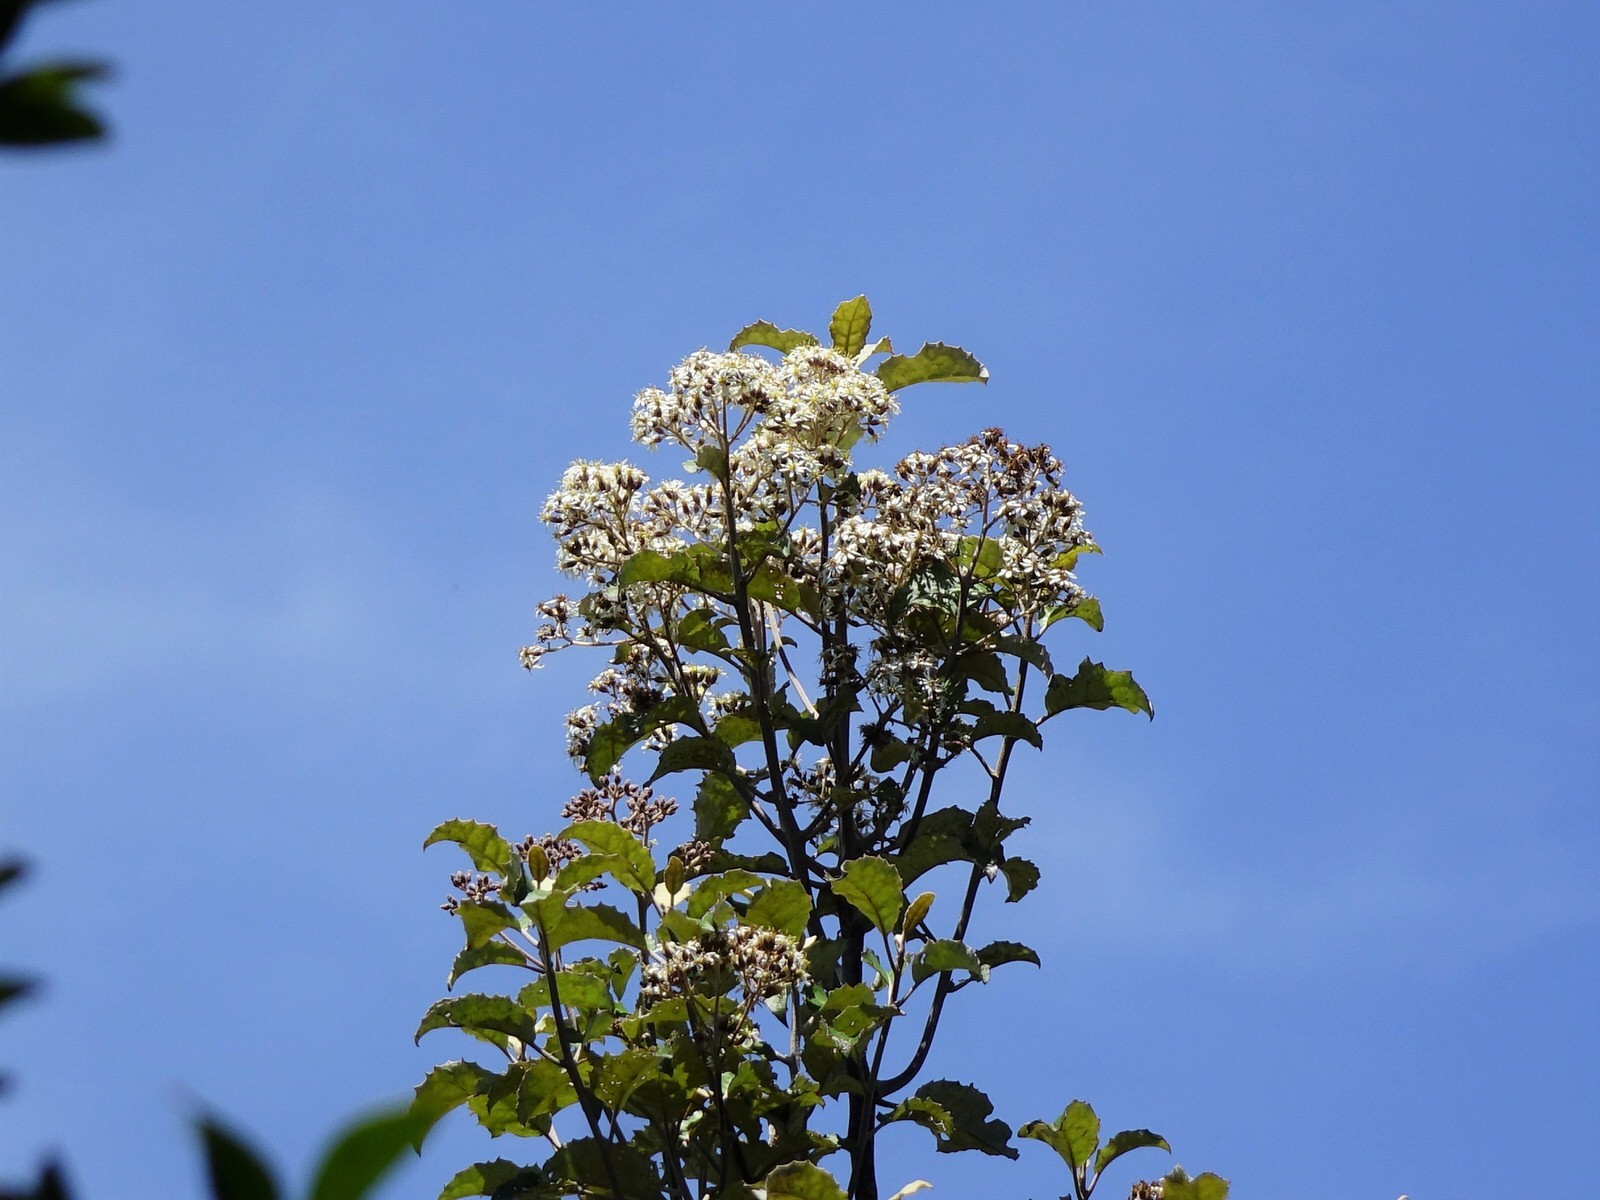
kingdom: Plantae
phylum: Tracheophyta
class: Magnoliopsida
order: Asterales
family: Asteraceae
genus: Olearia
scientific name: Olearia rani
